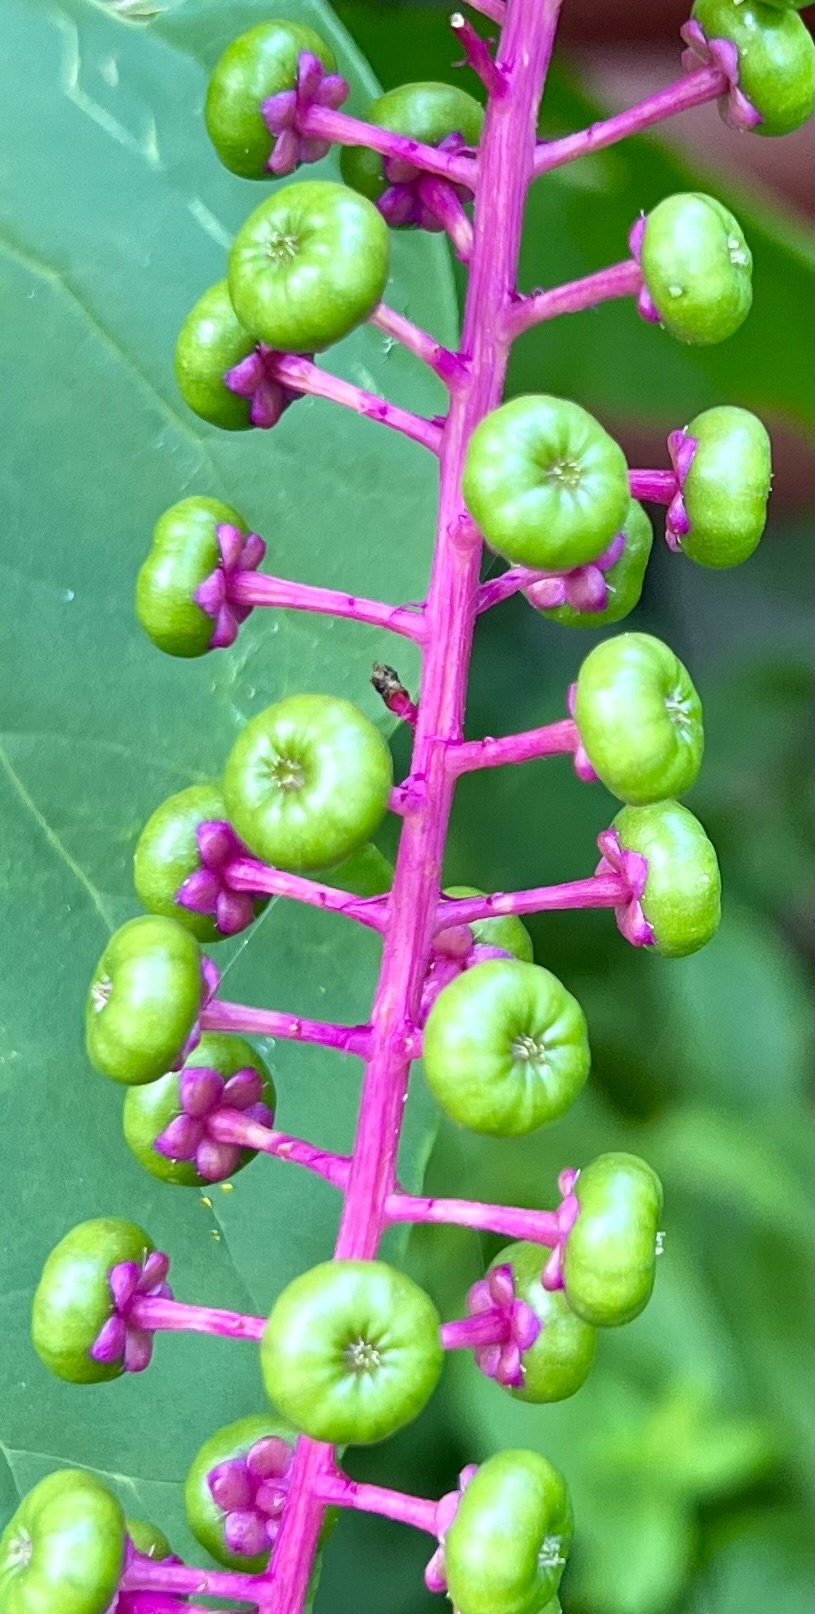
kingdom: Plantae
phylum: Tracheophyta
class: Magnoliopsida
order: Caryophyllales
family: Phytolaccaceae
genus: Phytolacca
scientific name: Phytolacca americana
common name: American pokeweed
